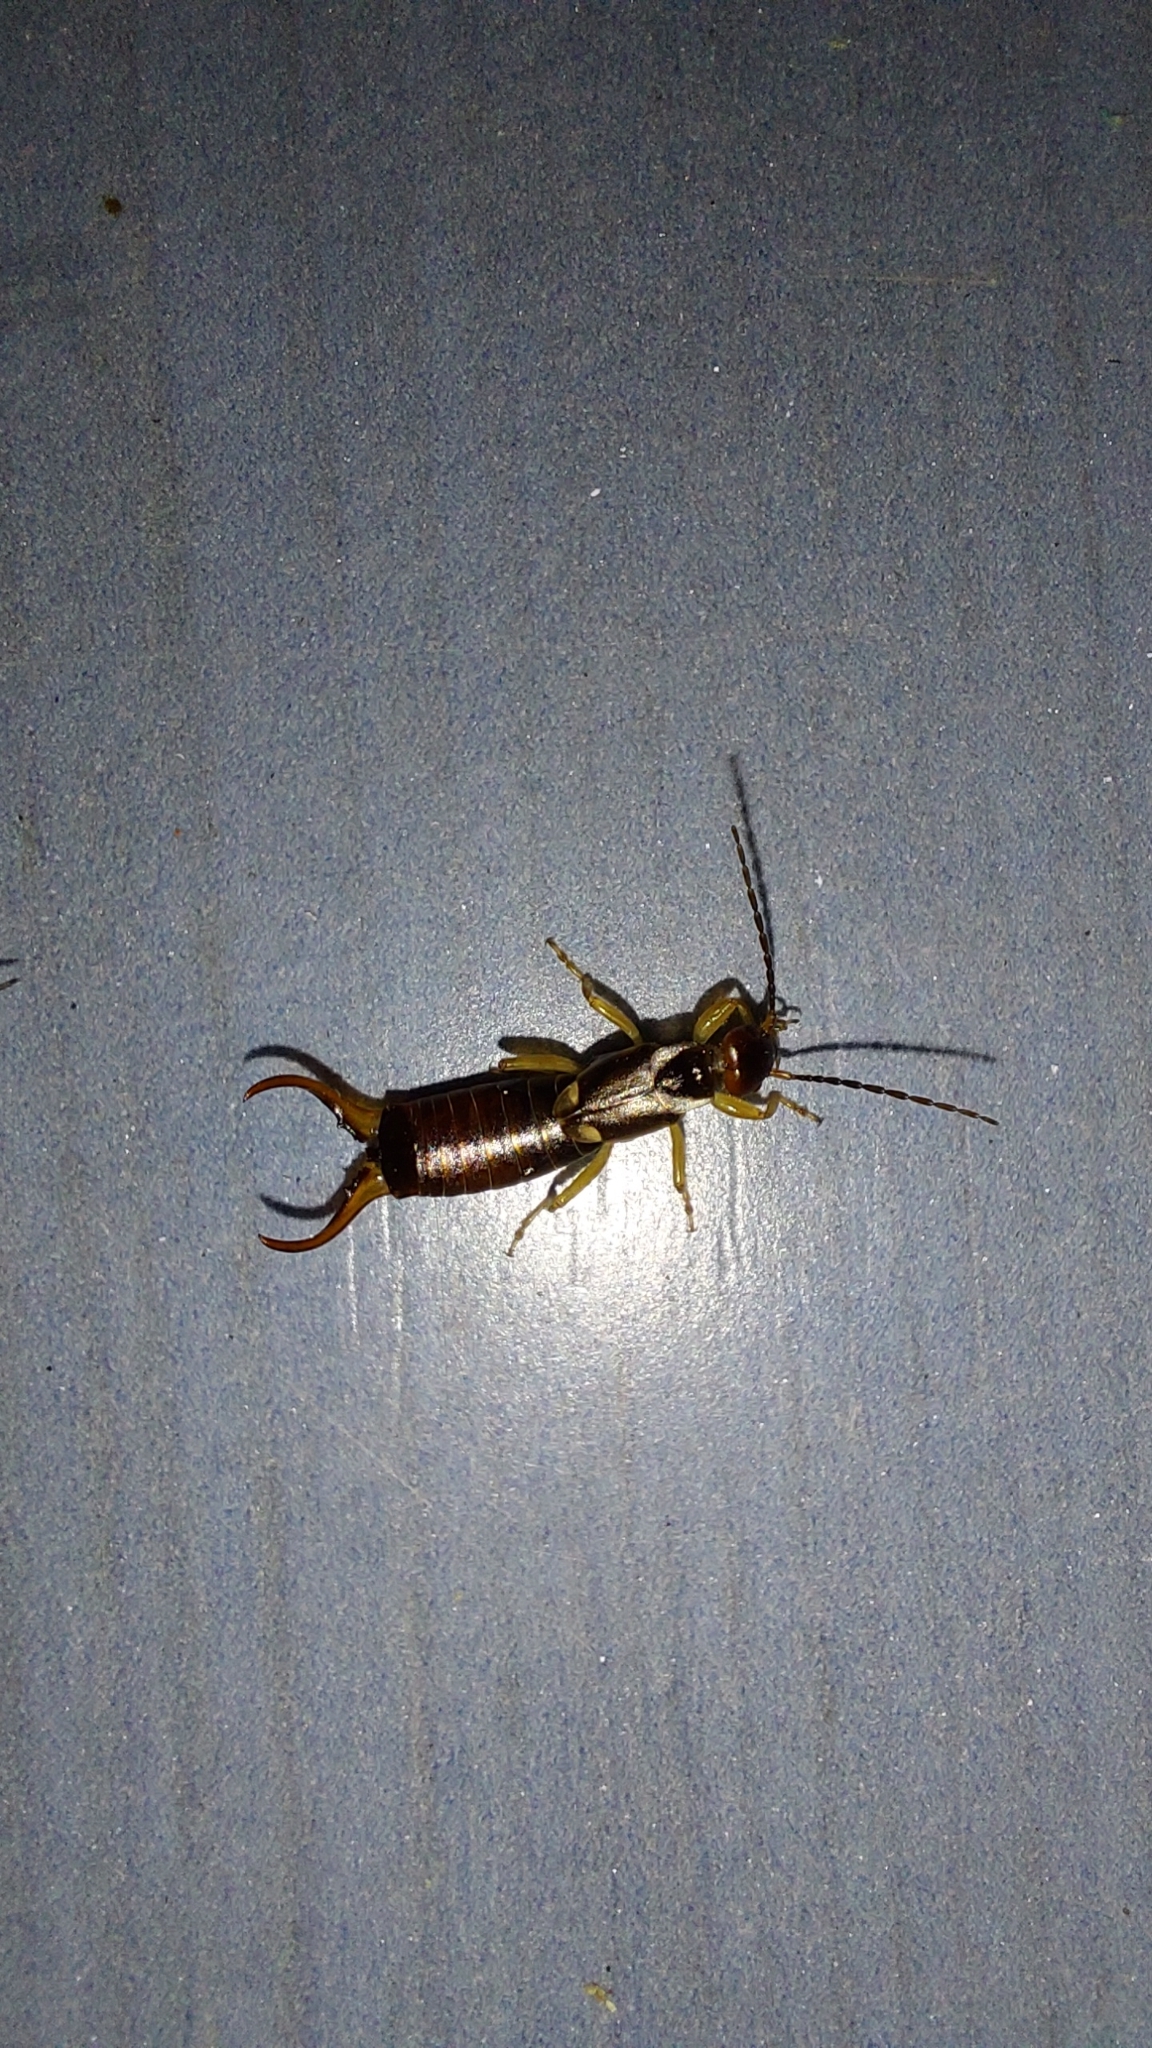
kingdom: Animalia
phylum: Arthropoda
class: Insecta
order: Dermaptera
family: Forficulidae
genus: Forficula
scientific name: Forficula
